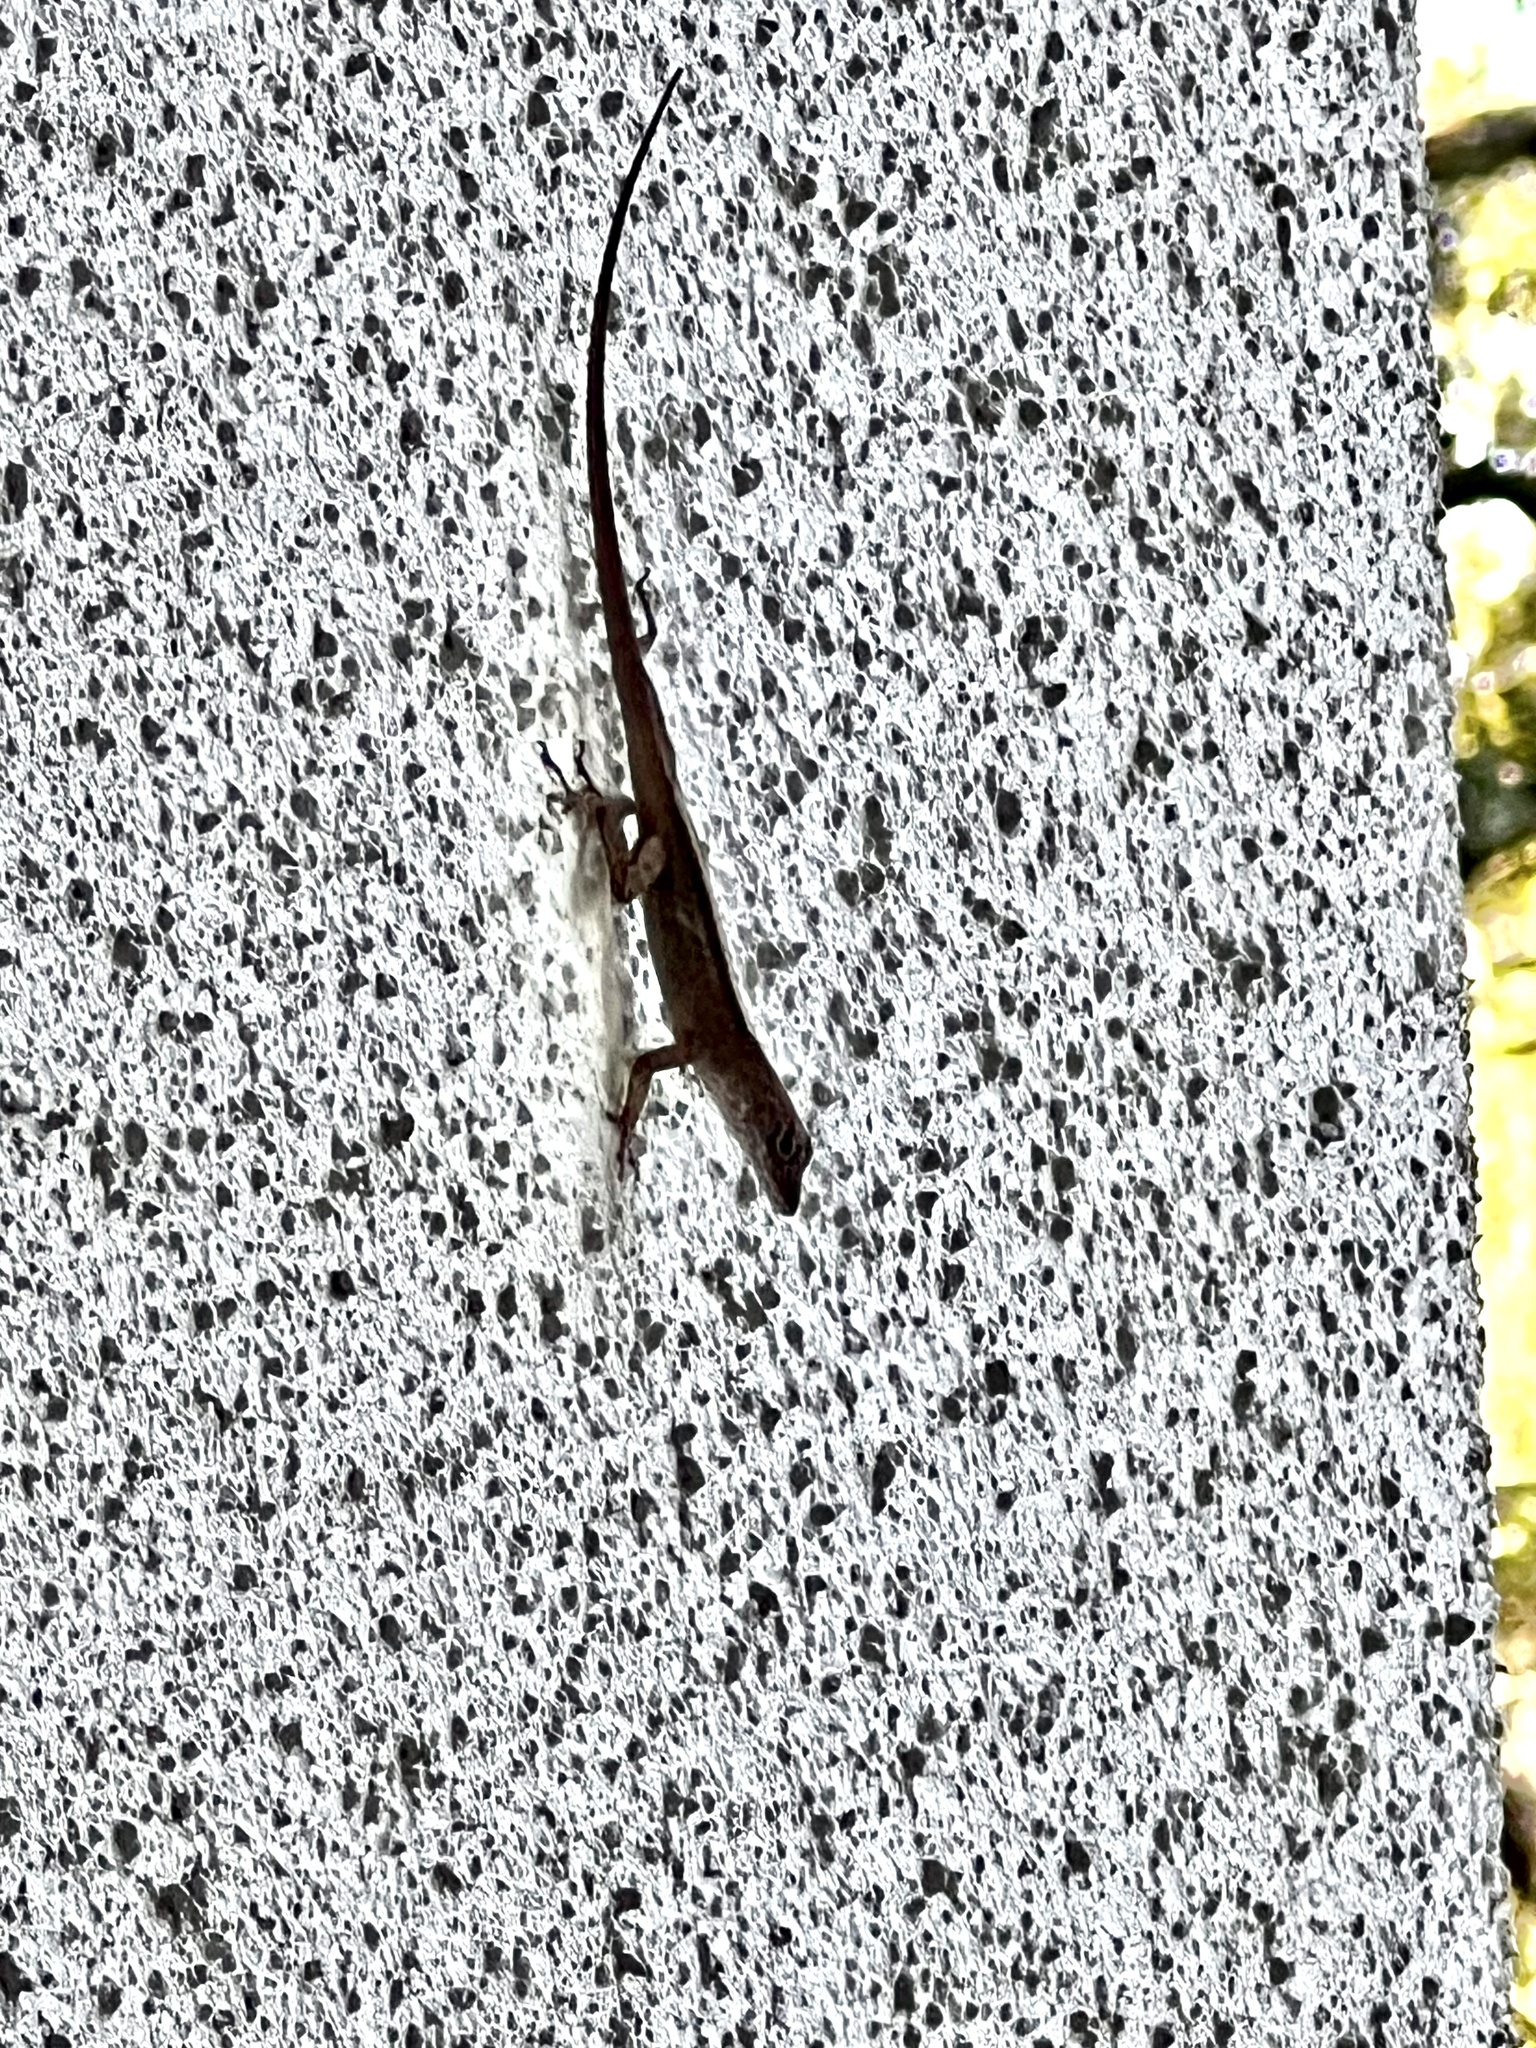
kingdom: Animalia
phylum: Chordata
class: Squamata
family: Dactyloidae
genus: Anolis
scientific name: Anolis sagrei
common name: Brown anole
